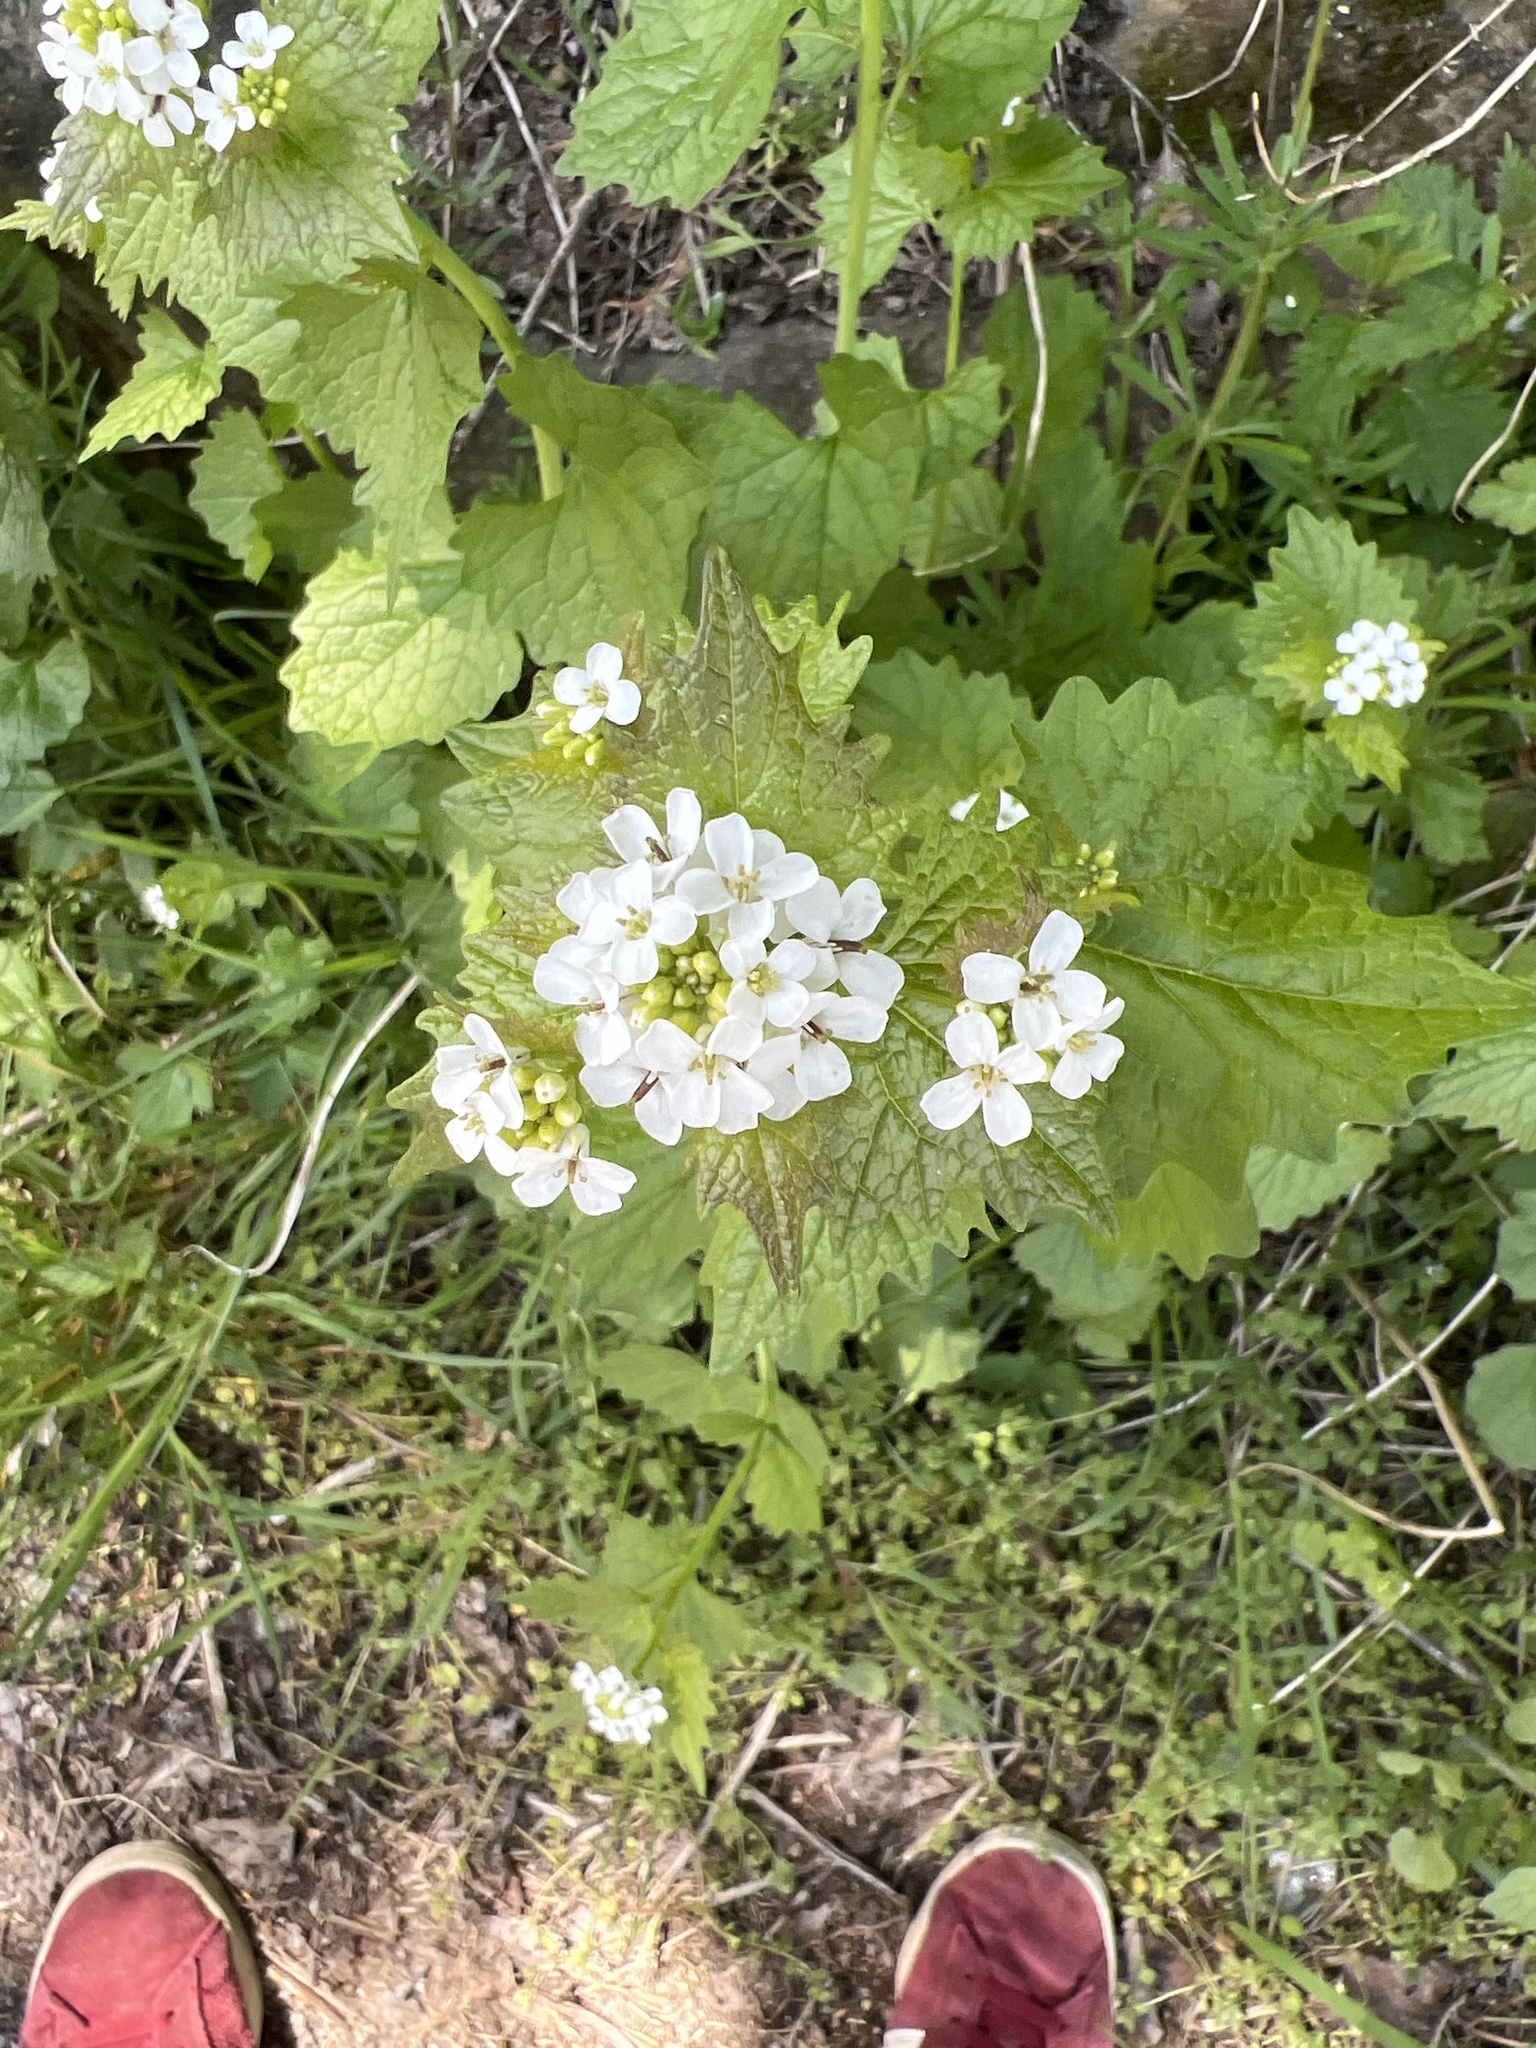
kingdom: Plantae
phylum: Tracheophyta
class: Magnoliopsida
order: Brassicales
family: Brassicaceae
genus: Alliaria
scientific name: Alliaria petiolata
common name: Garlic mustard
